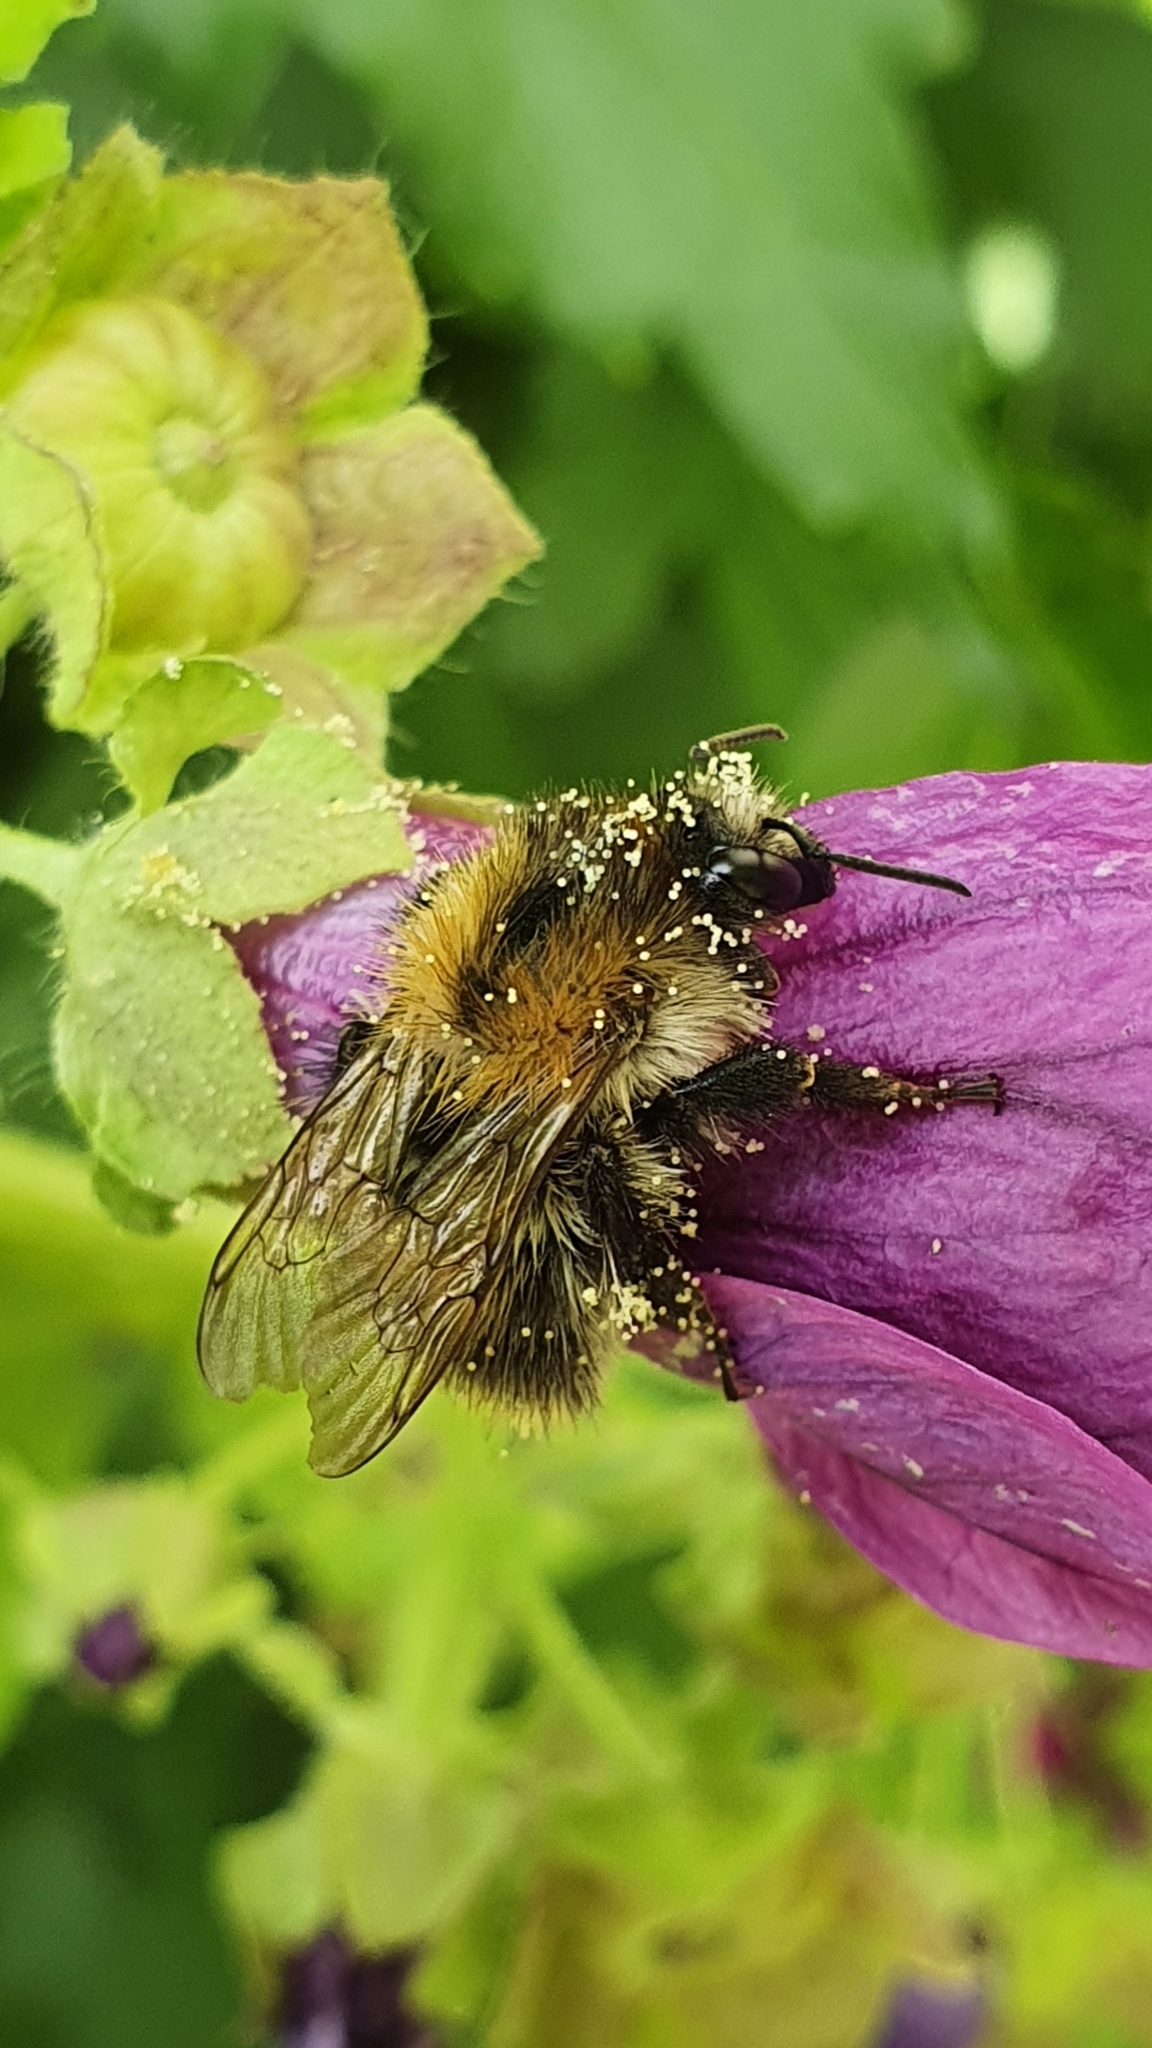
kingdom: Animalia
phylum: Arthropoda
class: Insecta
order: Hymenoptera
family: Apidae
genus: Bombus
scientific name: Bombus pascuorum
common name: Common carder bee
